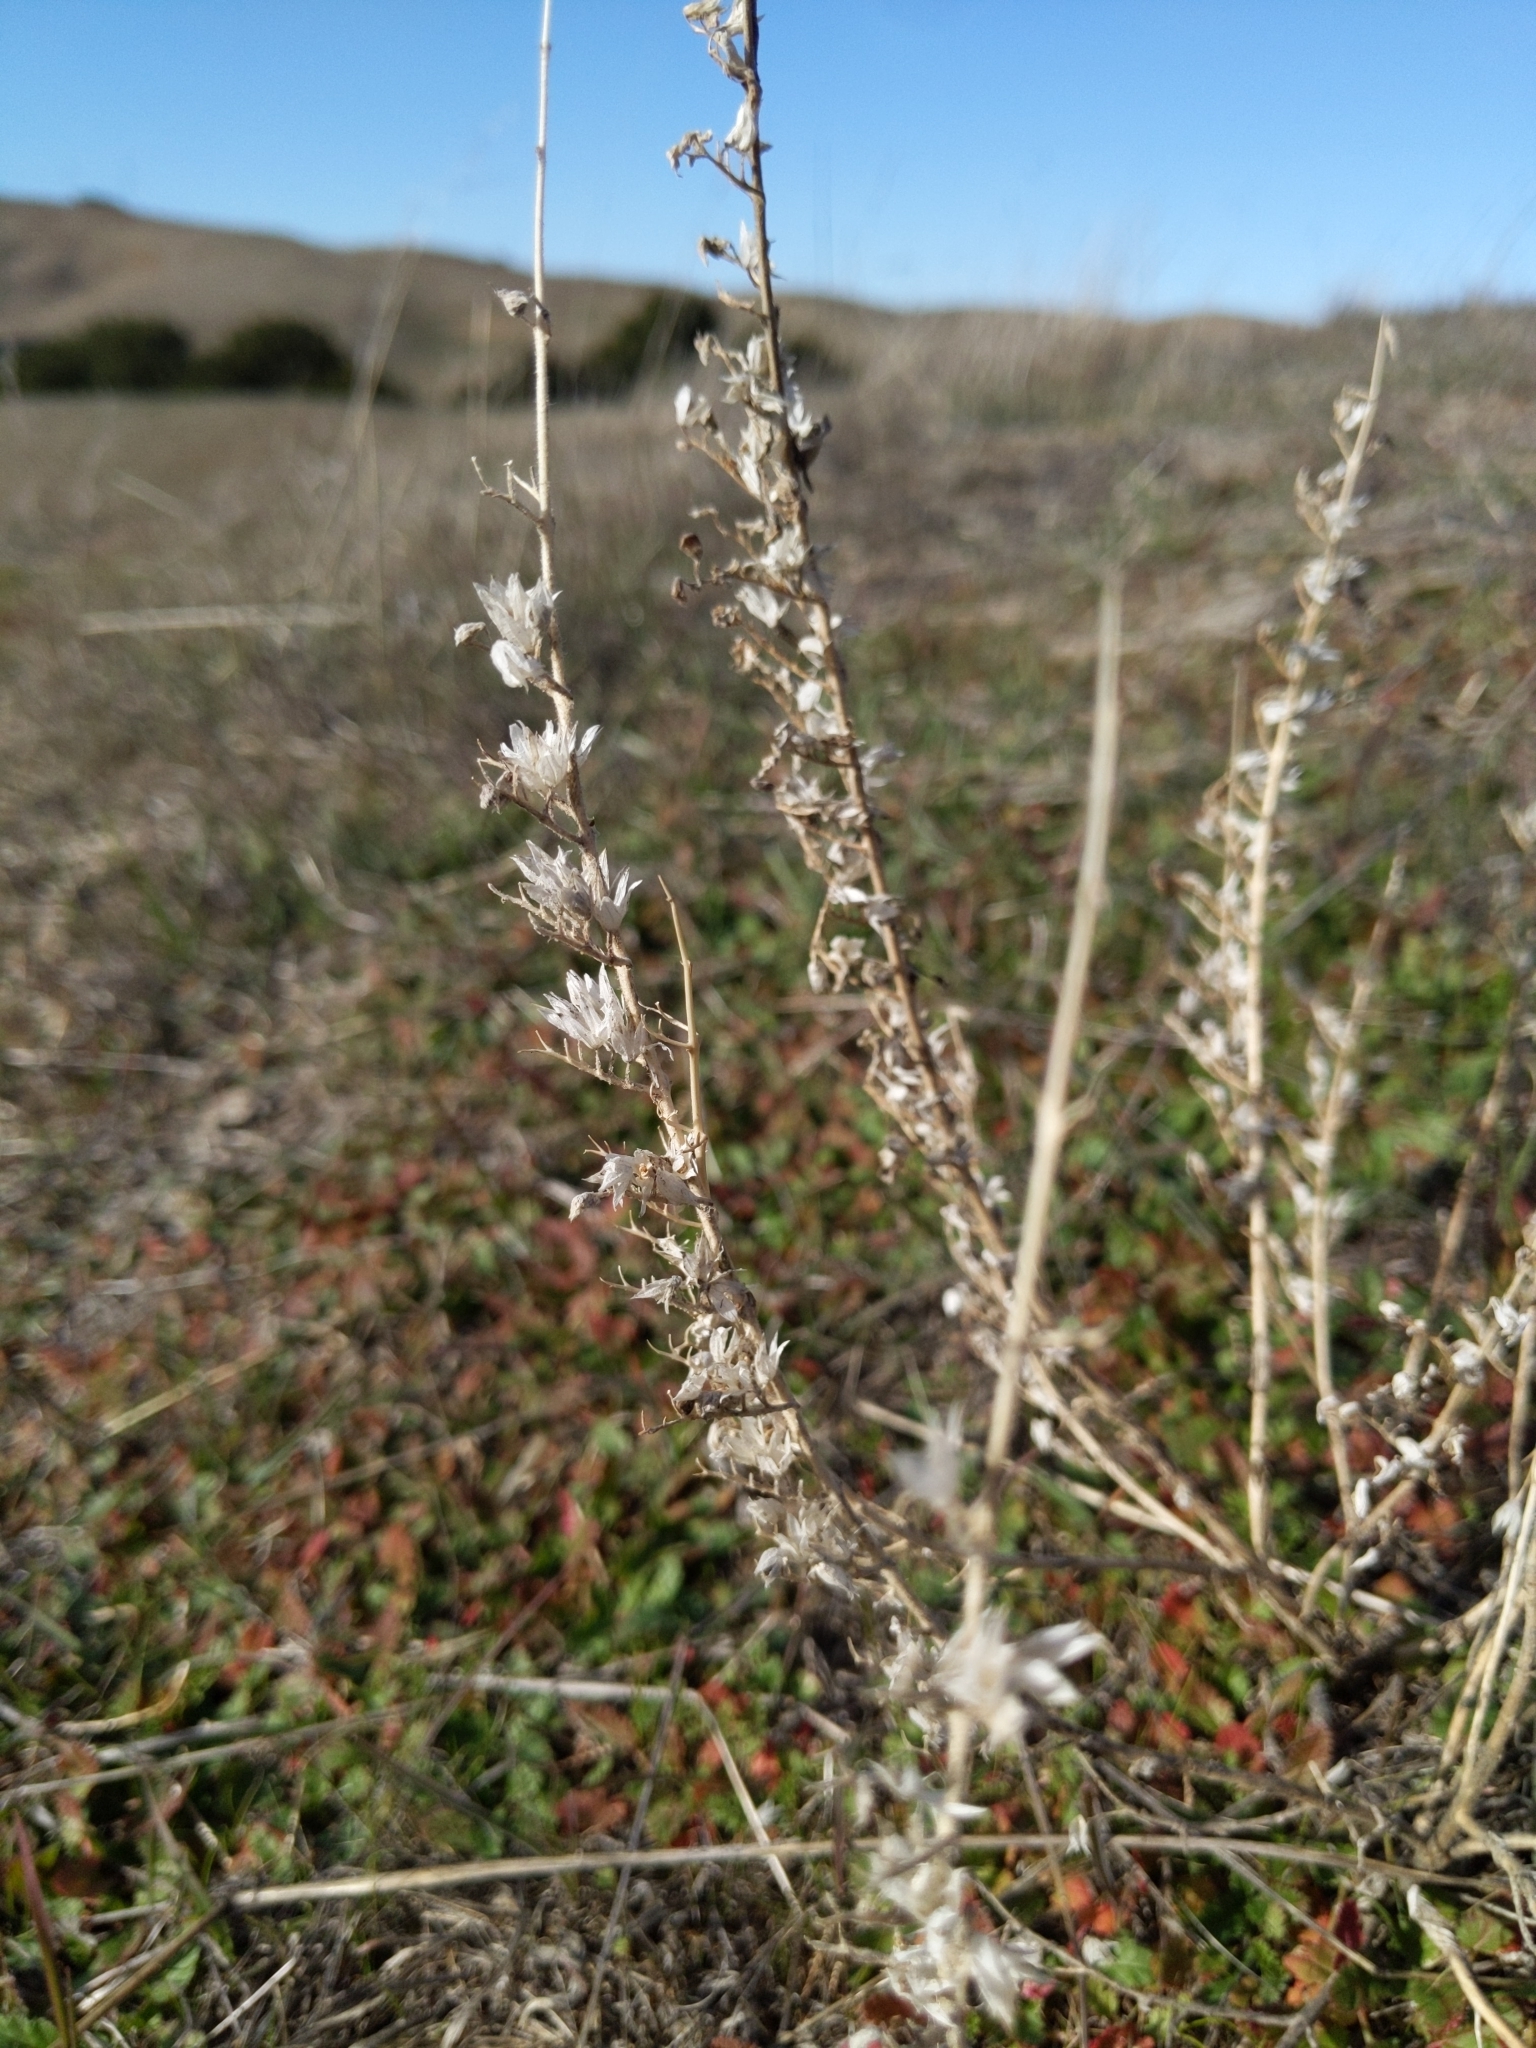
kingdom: Plantae
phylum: Tracheophyta
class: Magnoliopsida
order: Lamiales
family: Lamiaceae
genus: Trichostema
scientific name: Trichostema lanceolatum
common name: Vinegar-weed
